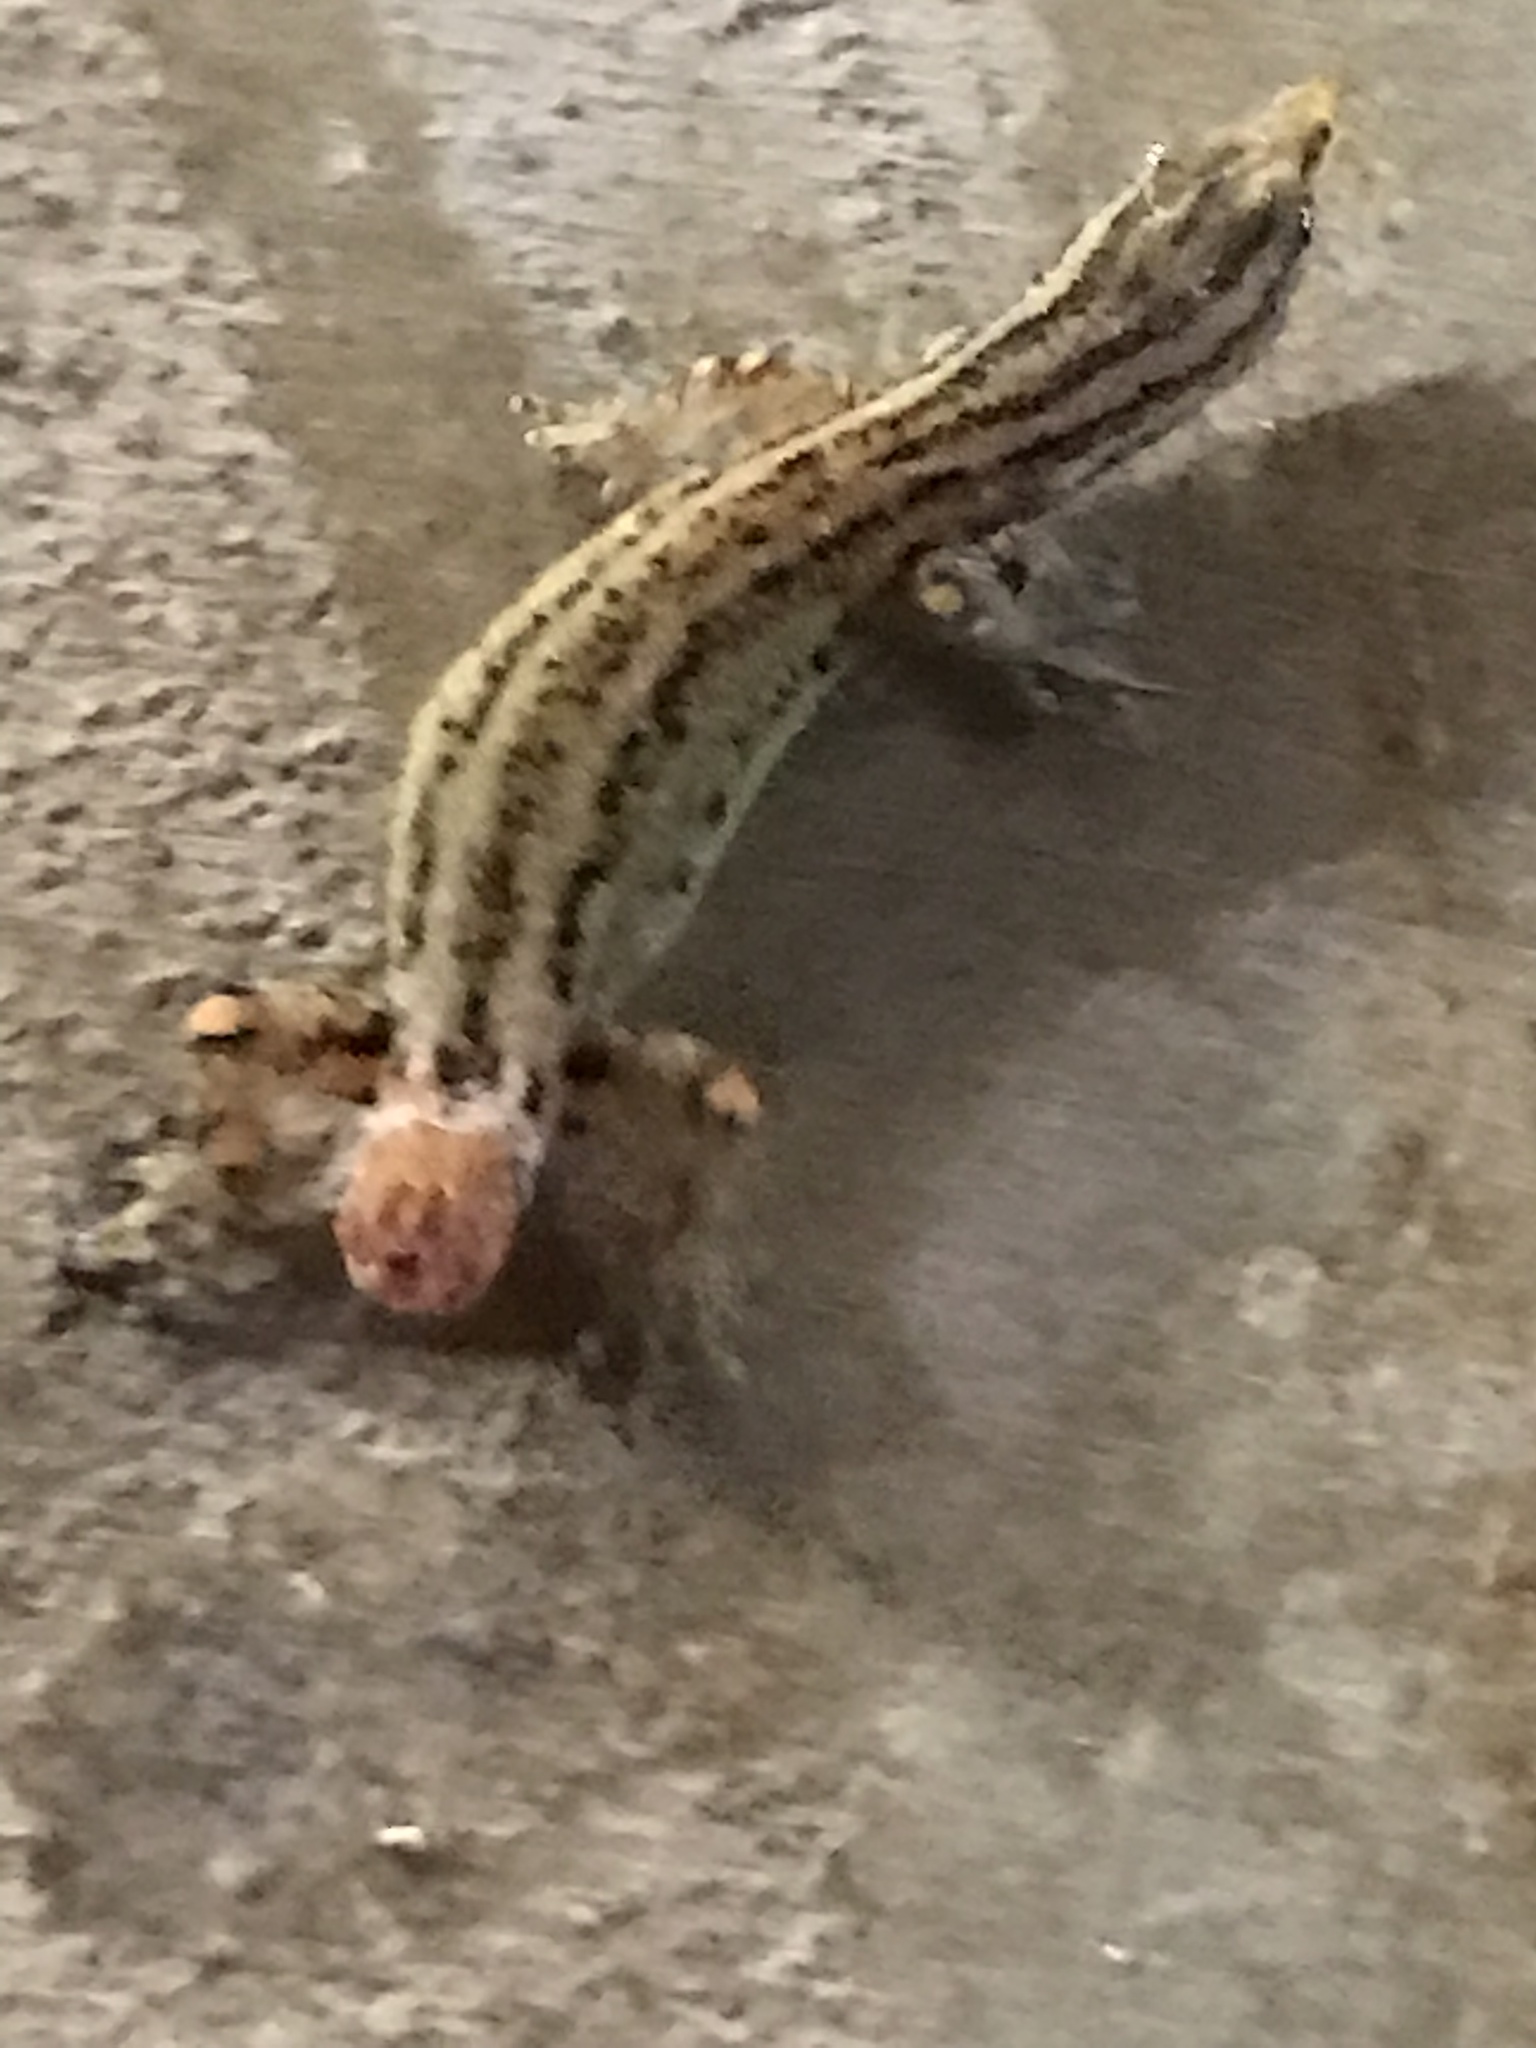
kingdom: Animalia
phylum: Chordata
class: Squamata
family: Sphaerodactylidae
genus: Sphaerodactylus
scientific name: Sphaerodactylus graptolaemus
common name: Costa rica least gecko
